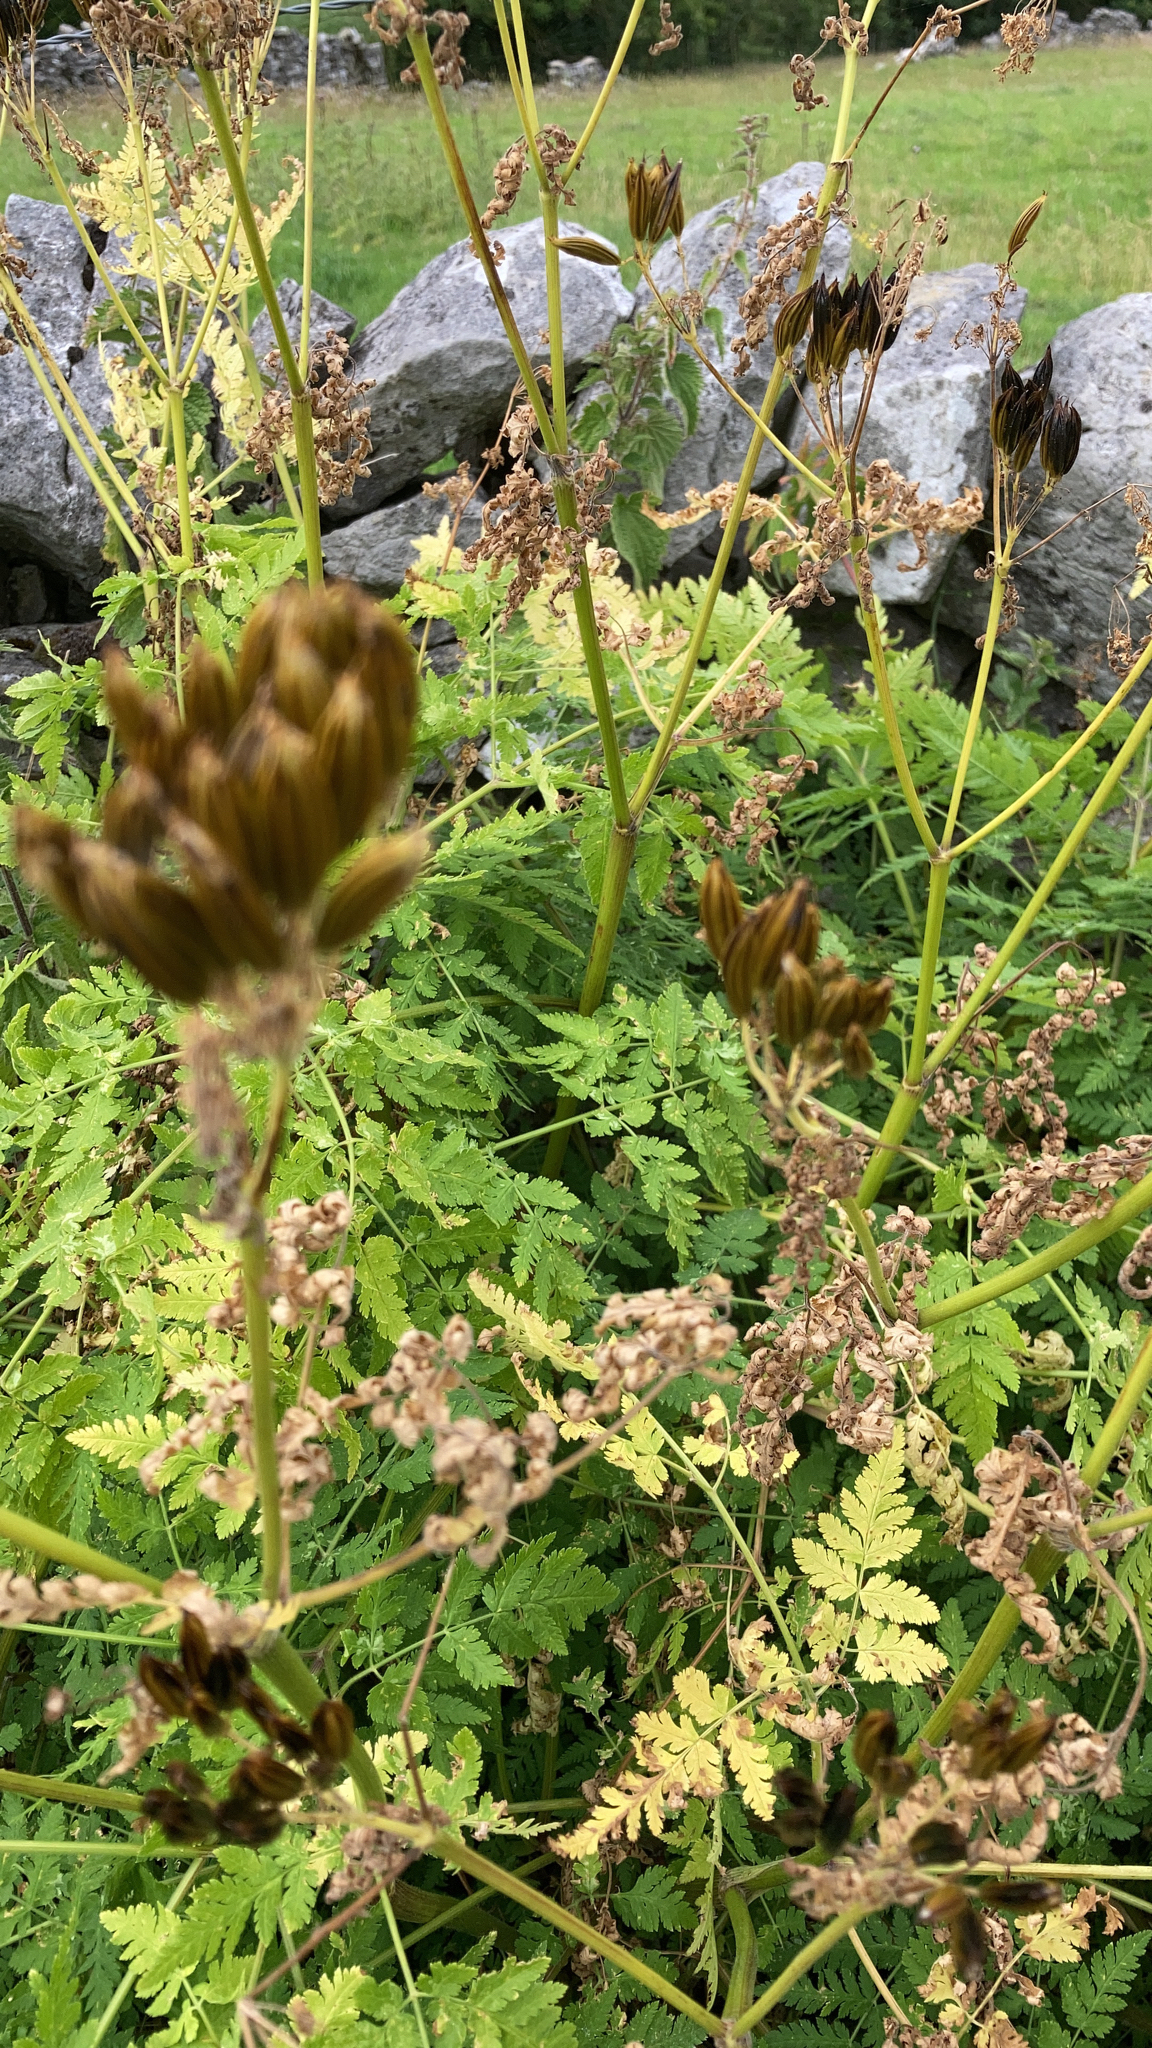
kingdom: Plantae
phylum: Tracheophyta
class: Magnoliopsida
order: Apiales
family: Apiaceae
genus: Myrrhis
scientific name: Myrrhis odorata
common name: Sweet cicely
